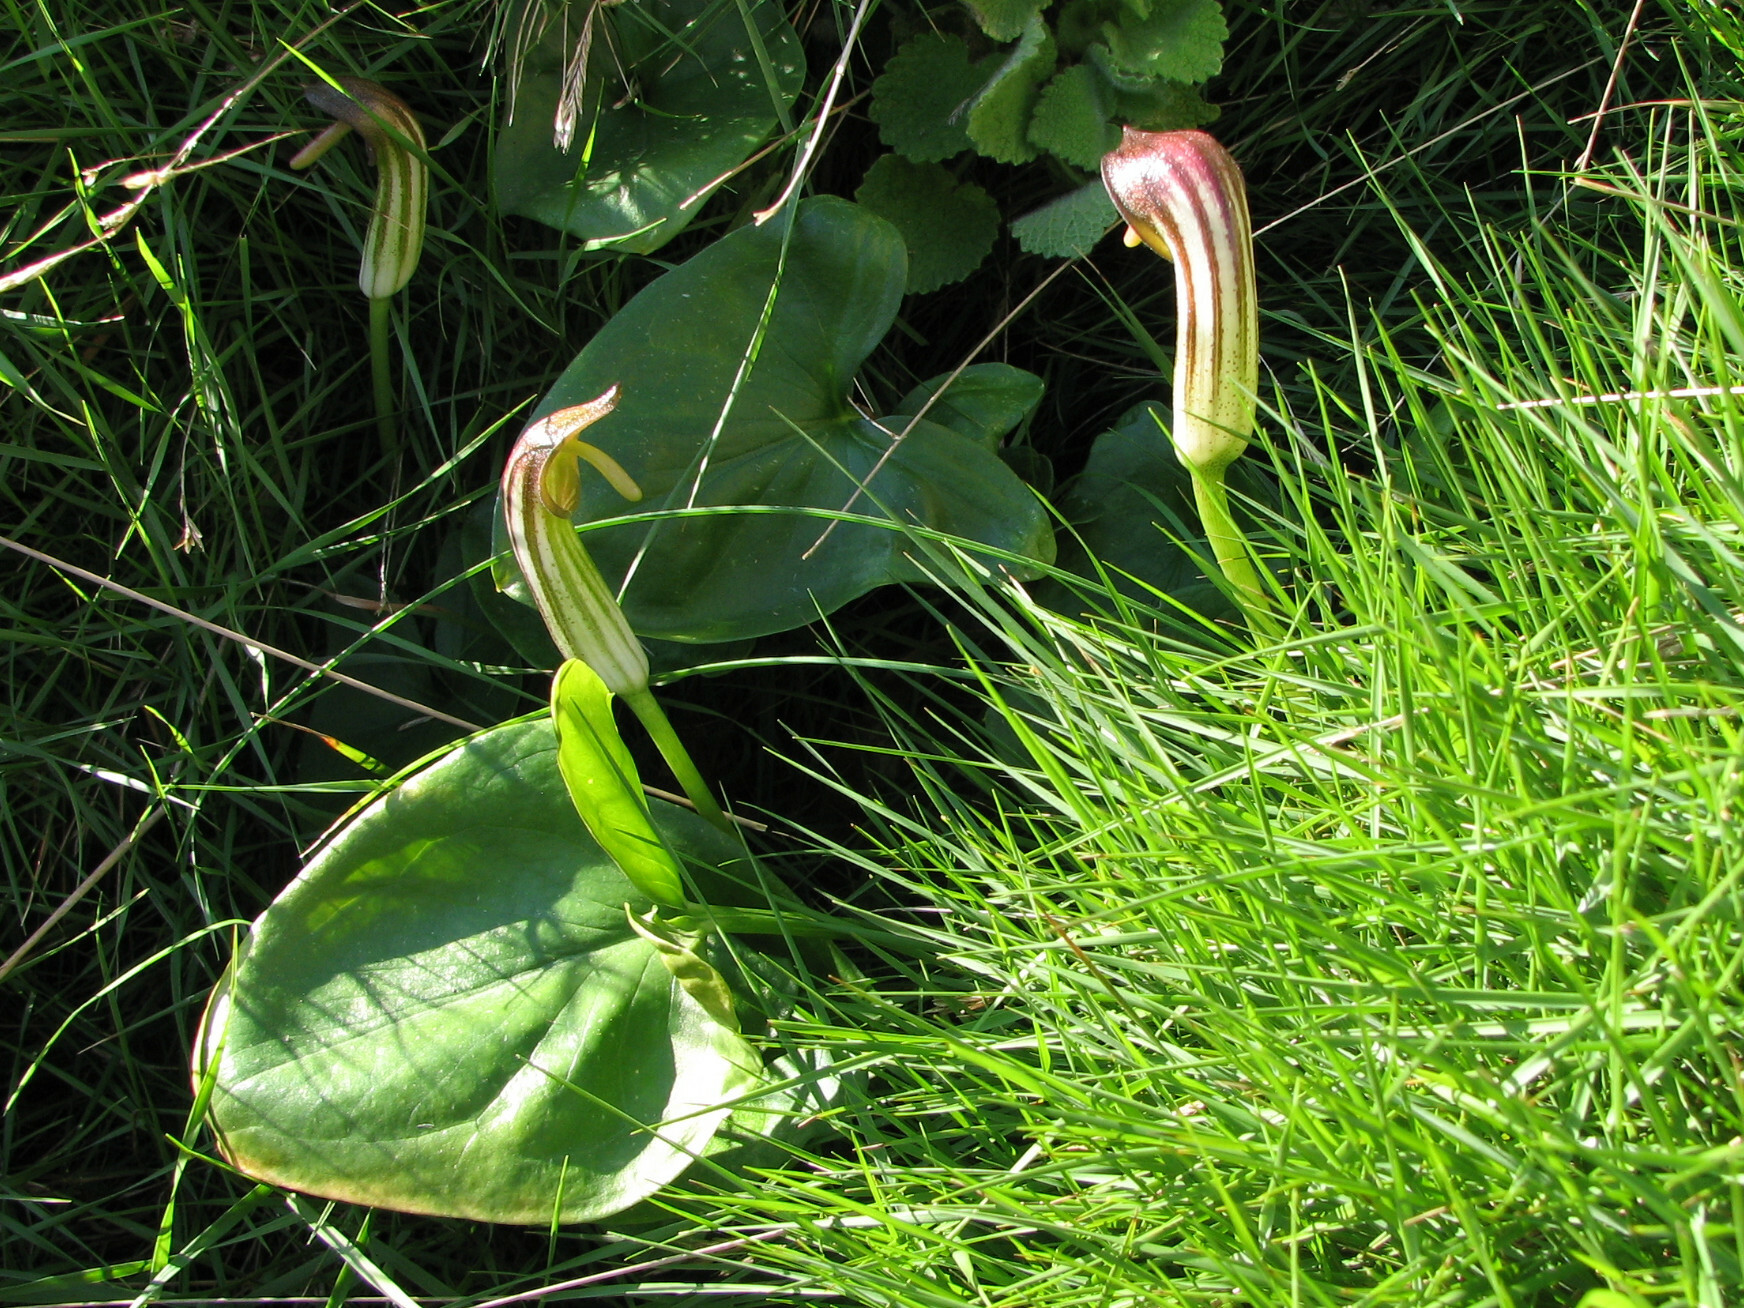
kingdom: Plantae
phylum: Tracheophyta
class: Liliopsida
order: Alismatales
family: Araceae
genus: Arisarum
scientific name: Arisarum vulgare
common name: Common arisarum
